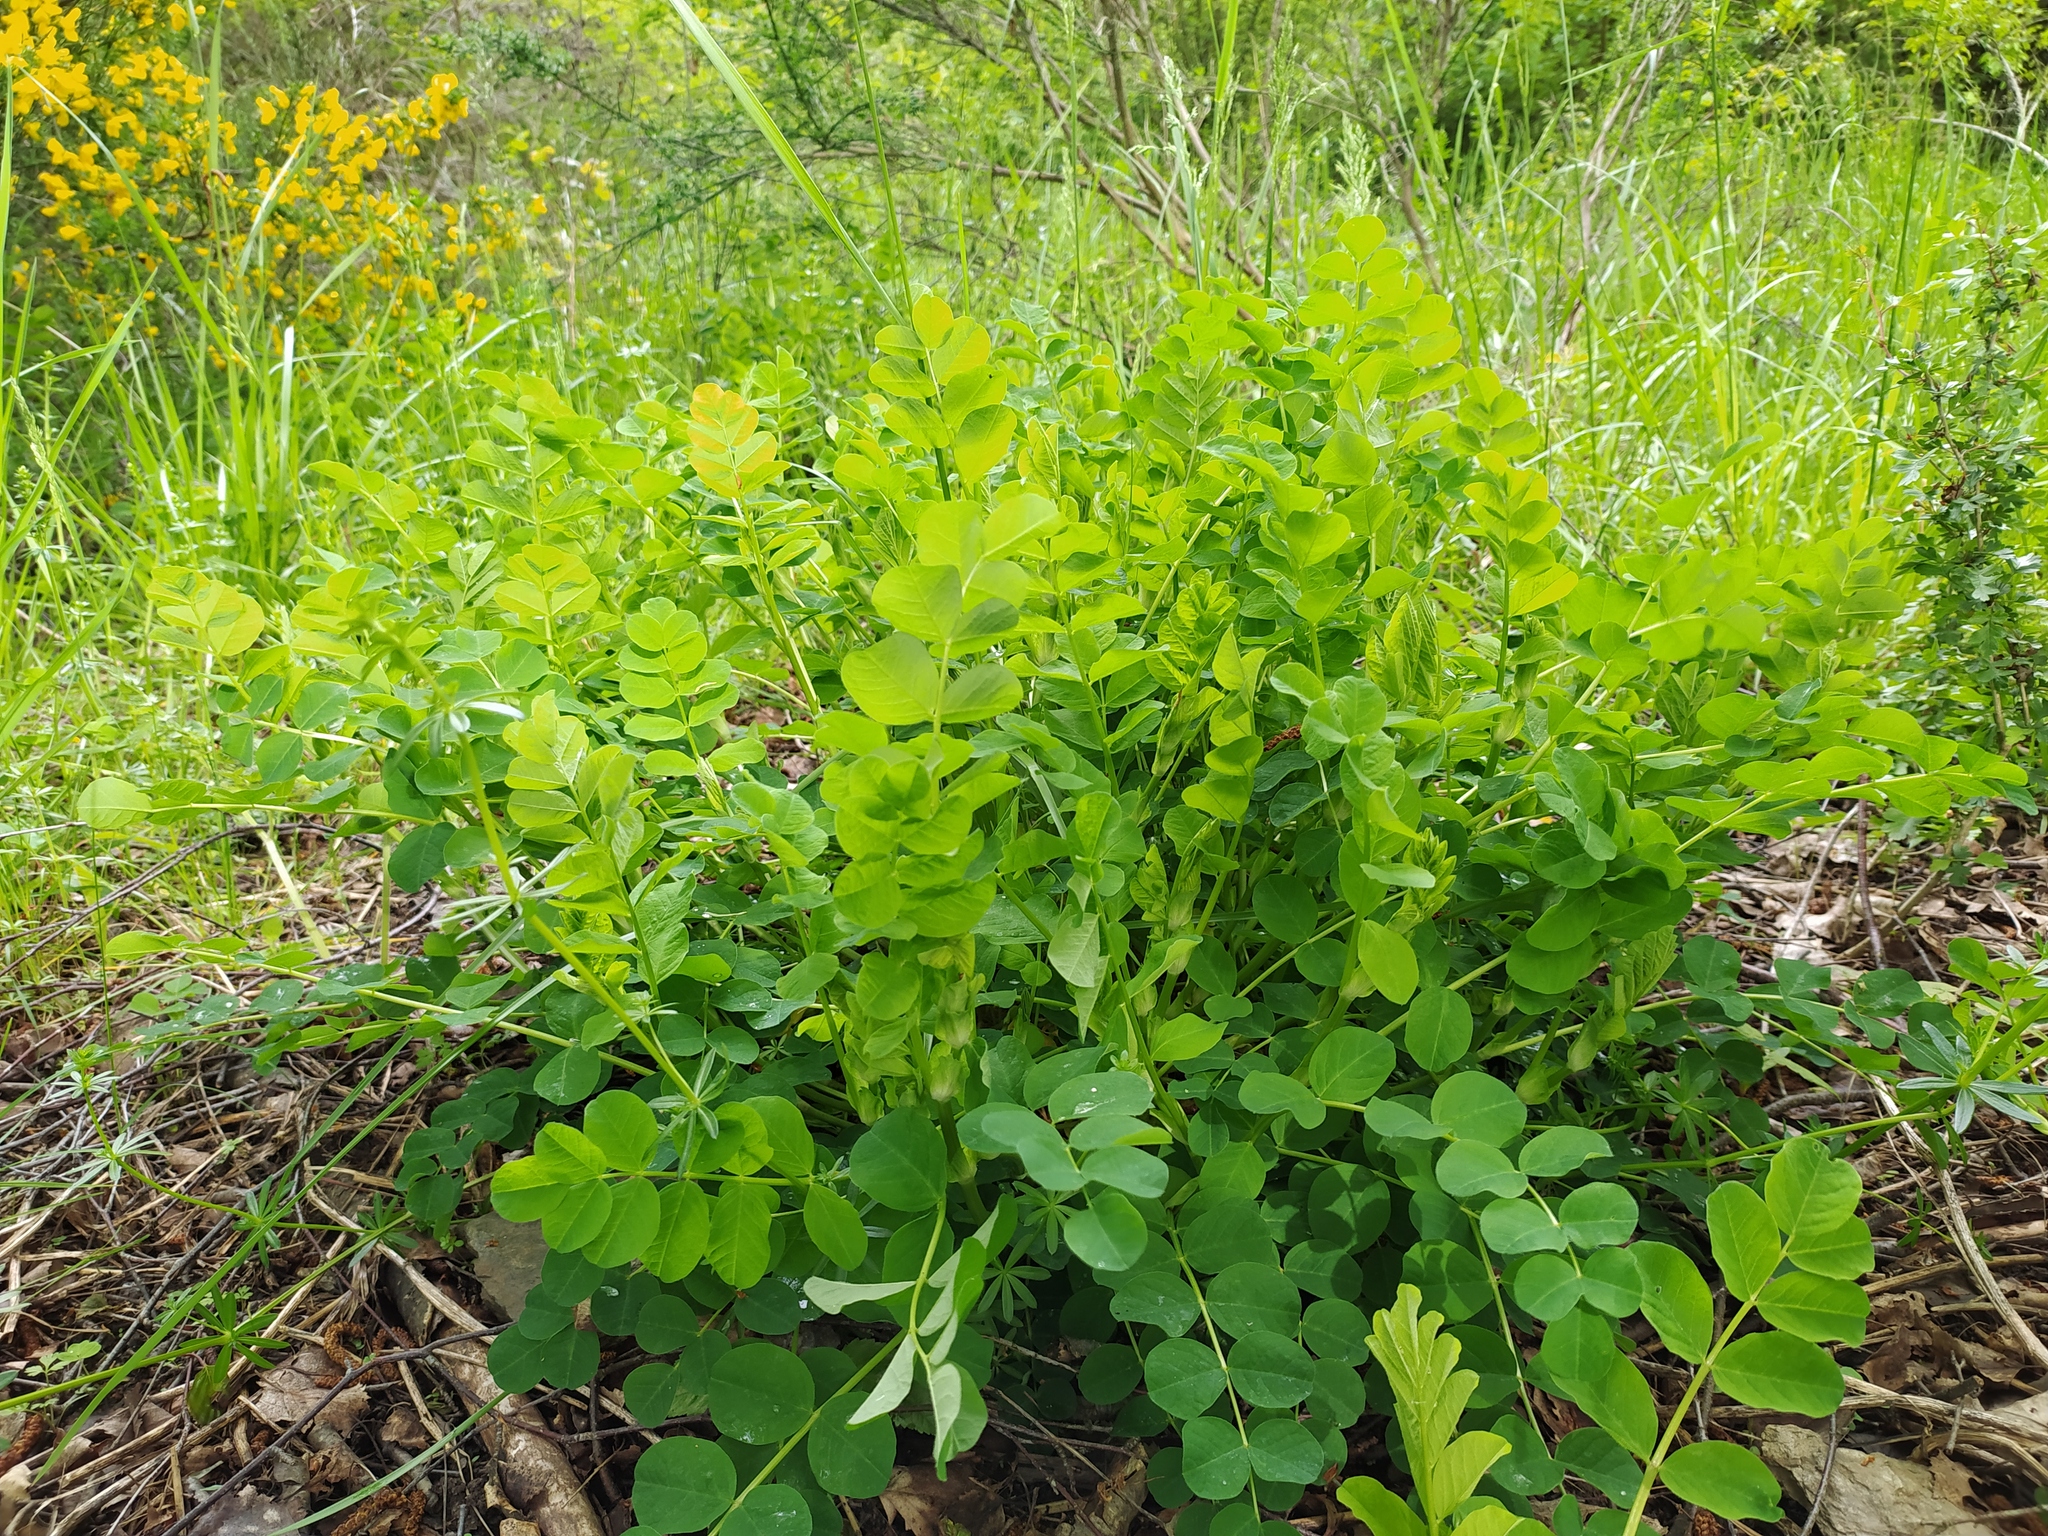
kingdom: Plantae
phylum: Tracheophyta
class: Magnoliopsida
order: Fabales
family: Fabaceae
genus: Astragalus
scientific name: Astragalus glycyphyllos
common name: Wild liquorice
